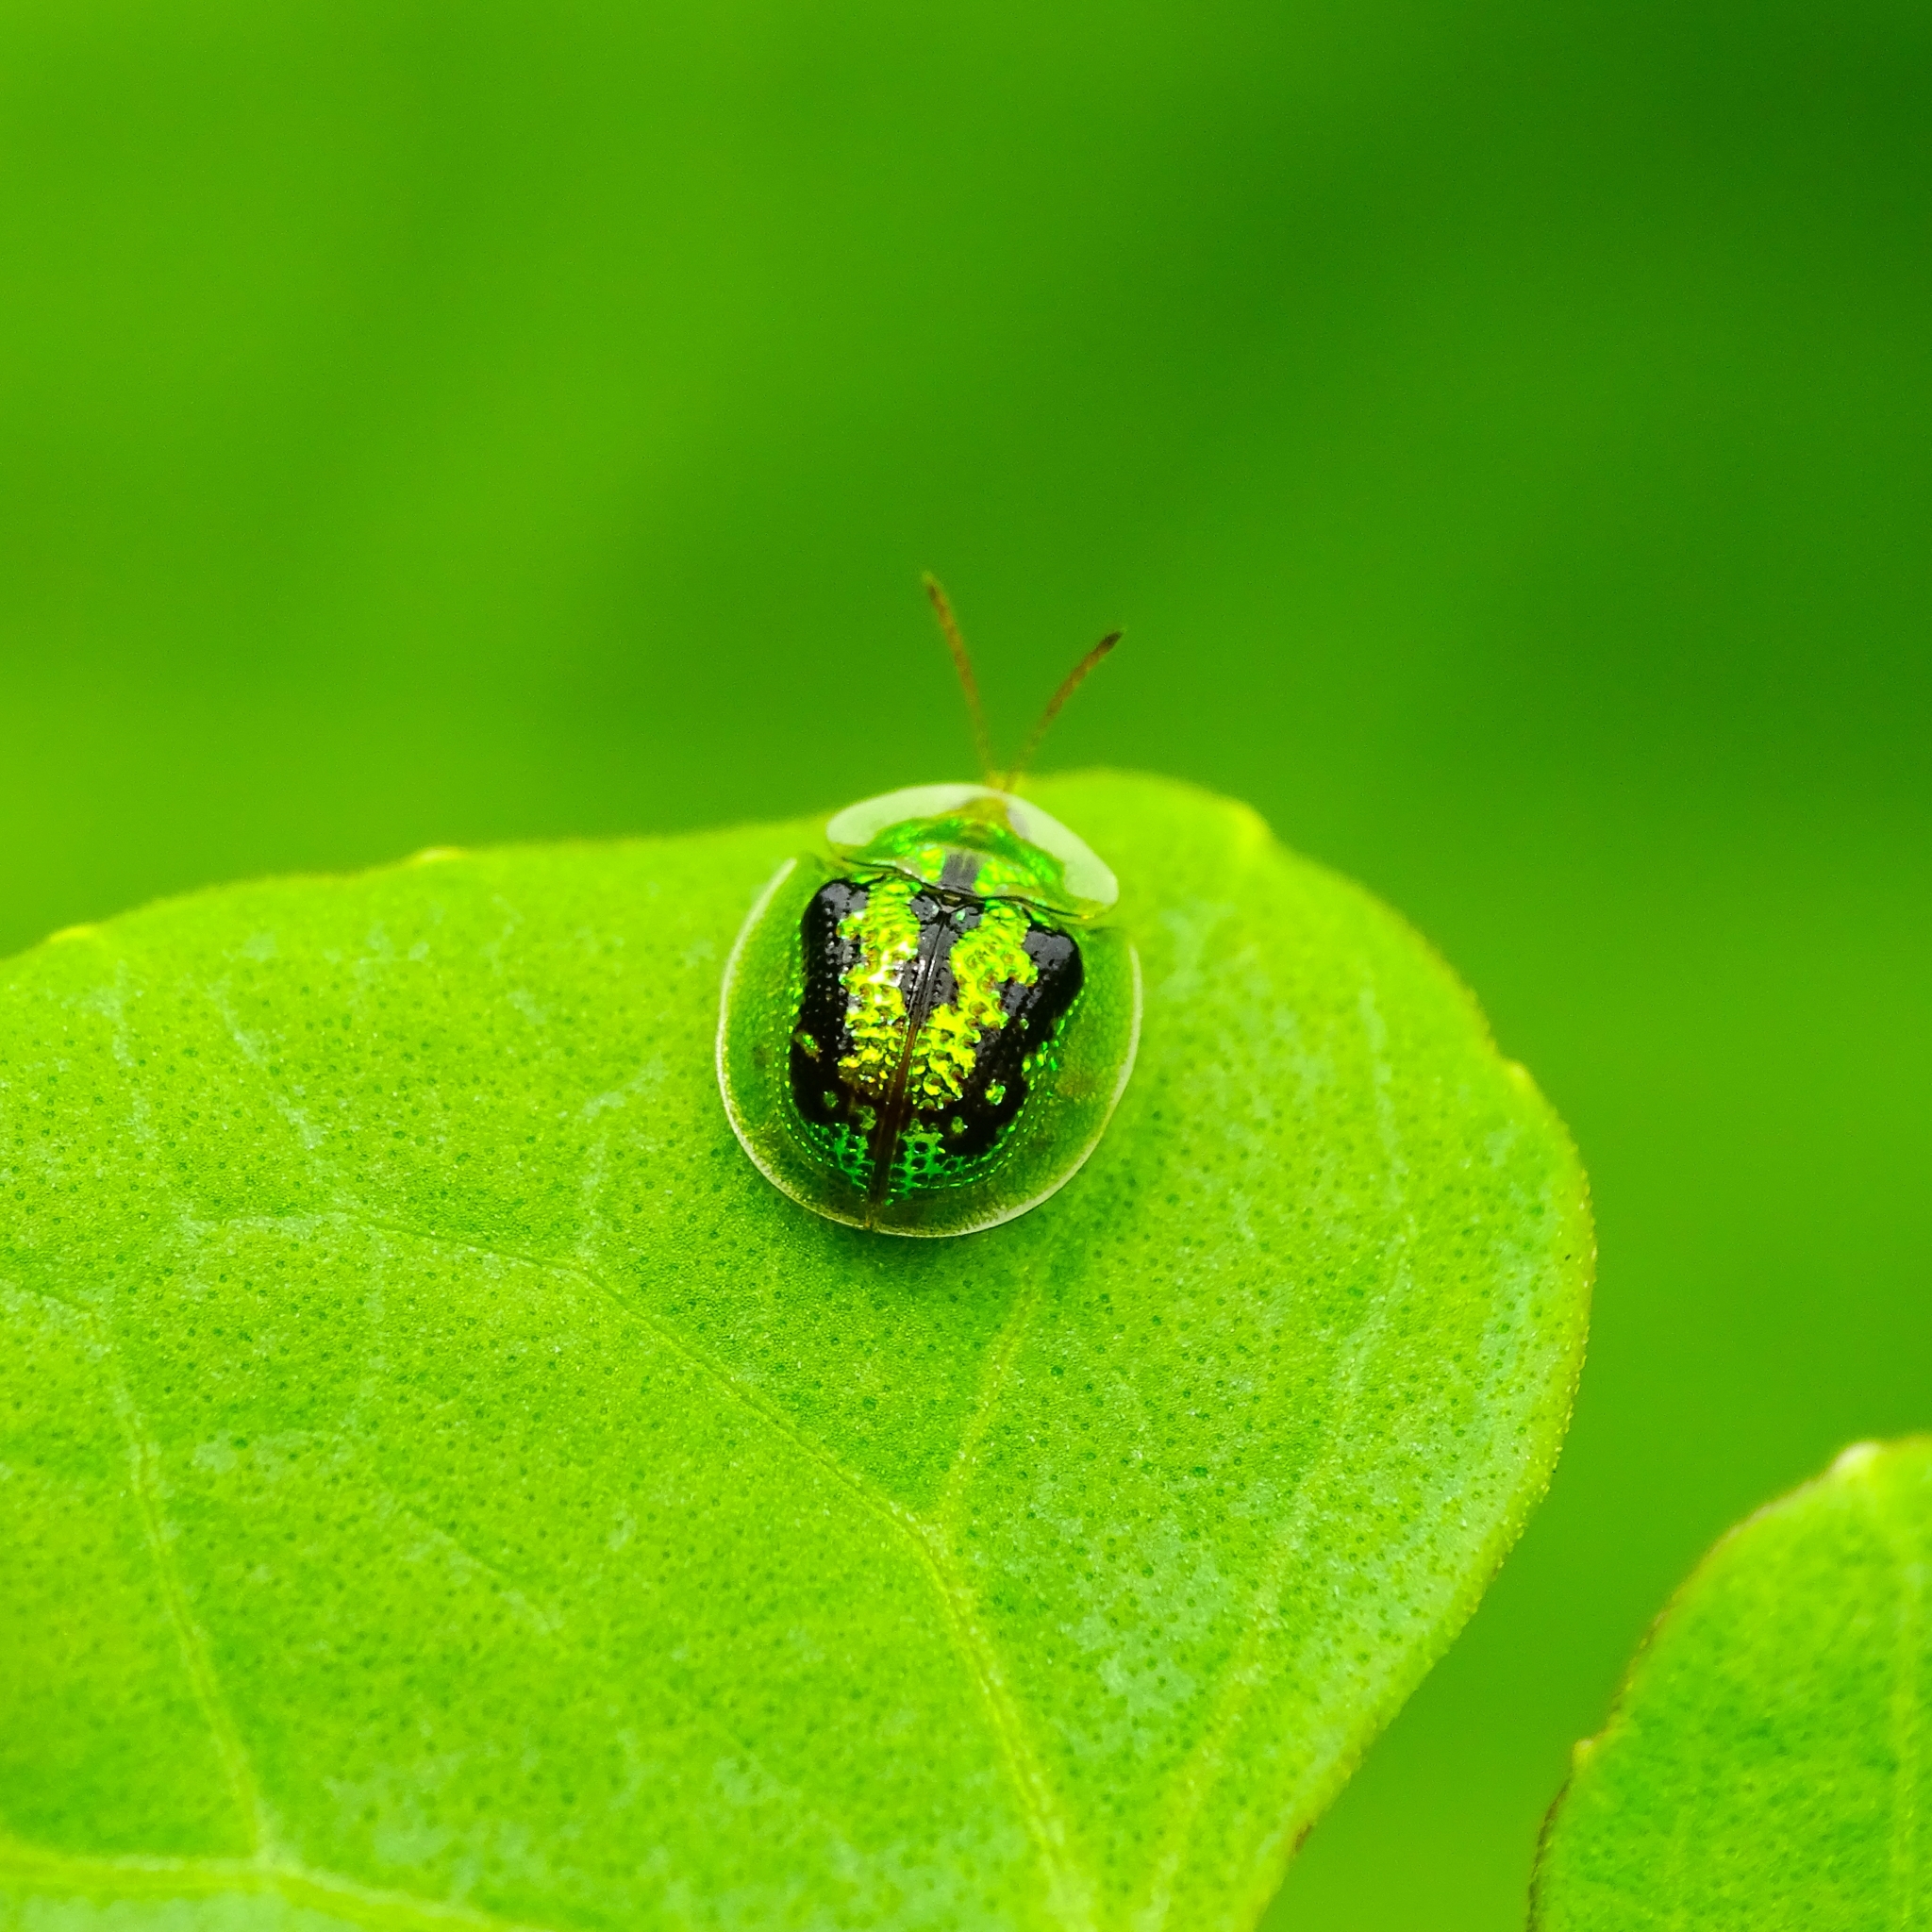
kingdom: Animalia
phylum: Arthropoda
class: Insecta
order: Coleoptera
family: Chrysomelidae
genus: Cassida
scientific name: Cassida circumdata
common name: Tortoise beetle
